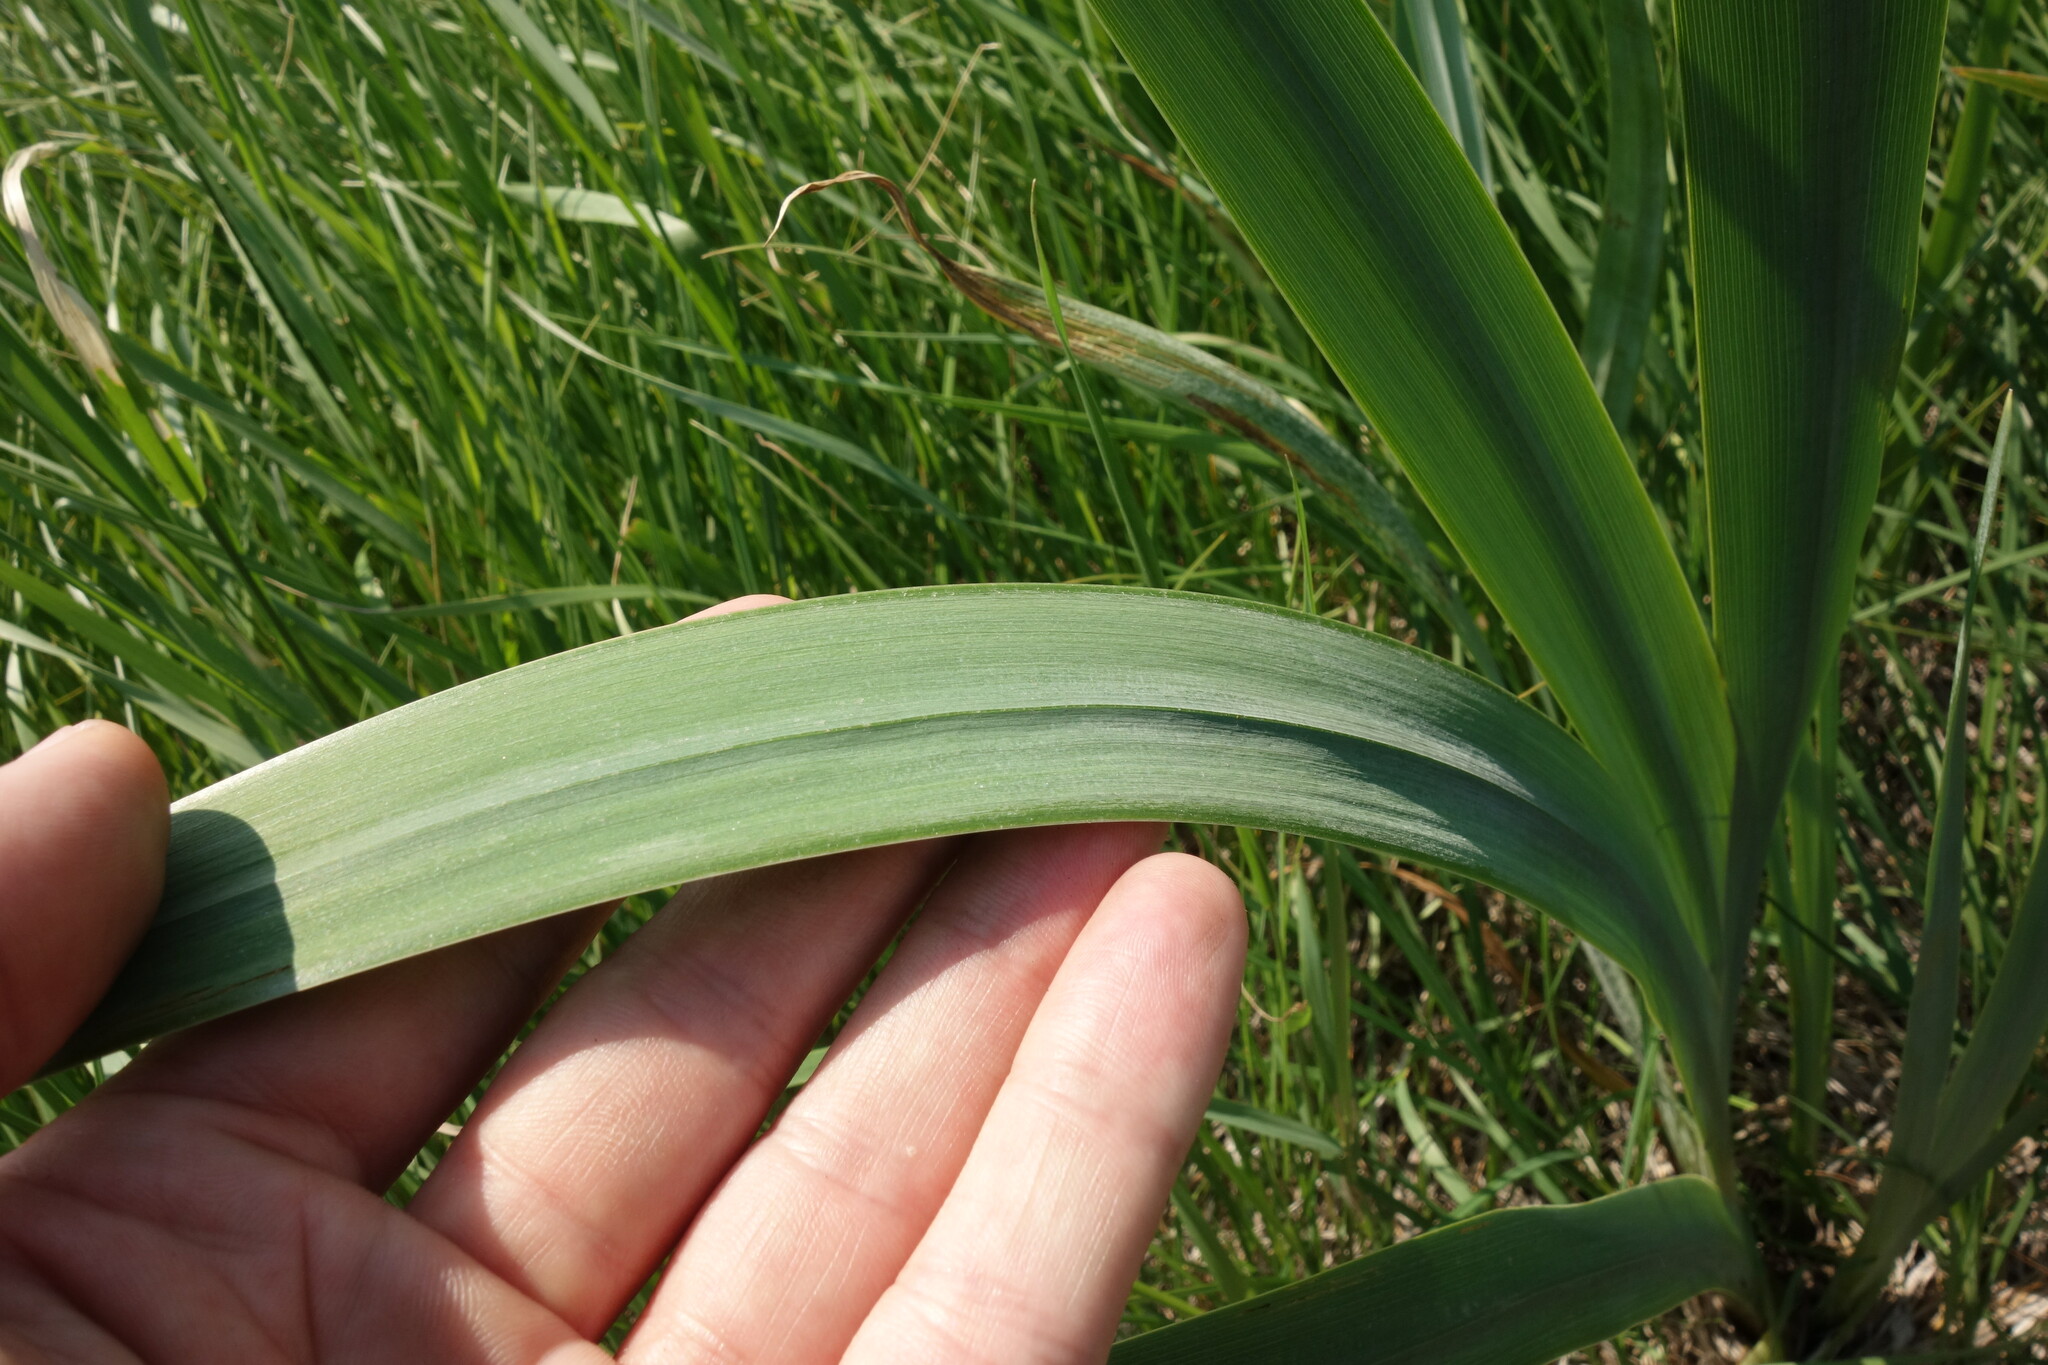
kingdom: Plantae
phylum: Tracheophyta
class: Liliopsida
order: Asparagales
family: Iridaceae
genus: Iris
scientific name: Iris pseudacorus
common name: Yellow flag
